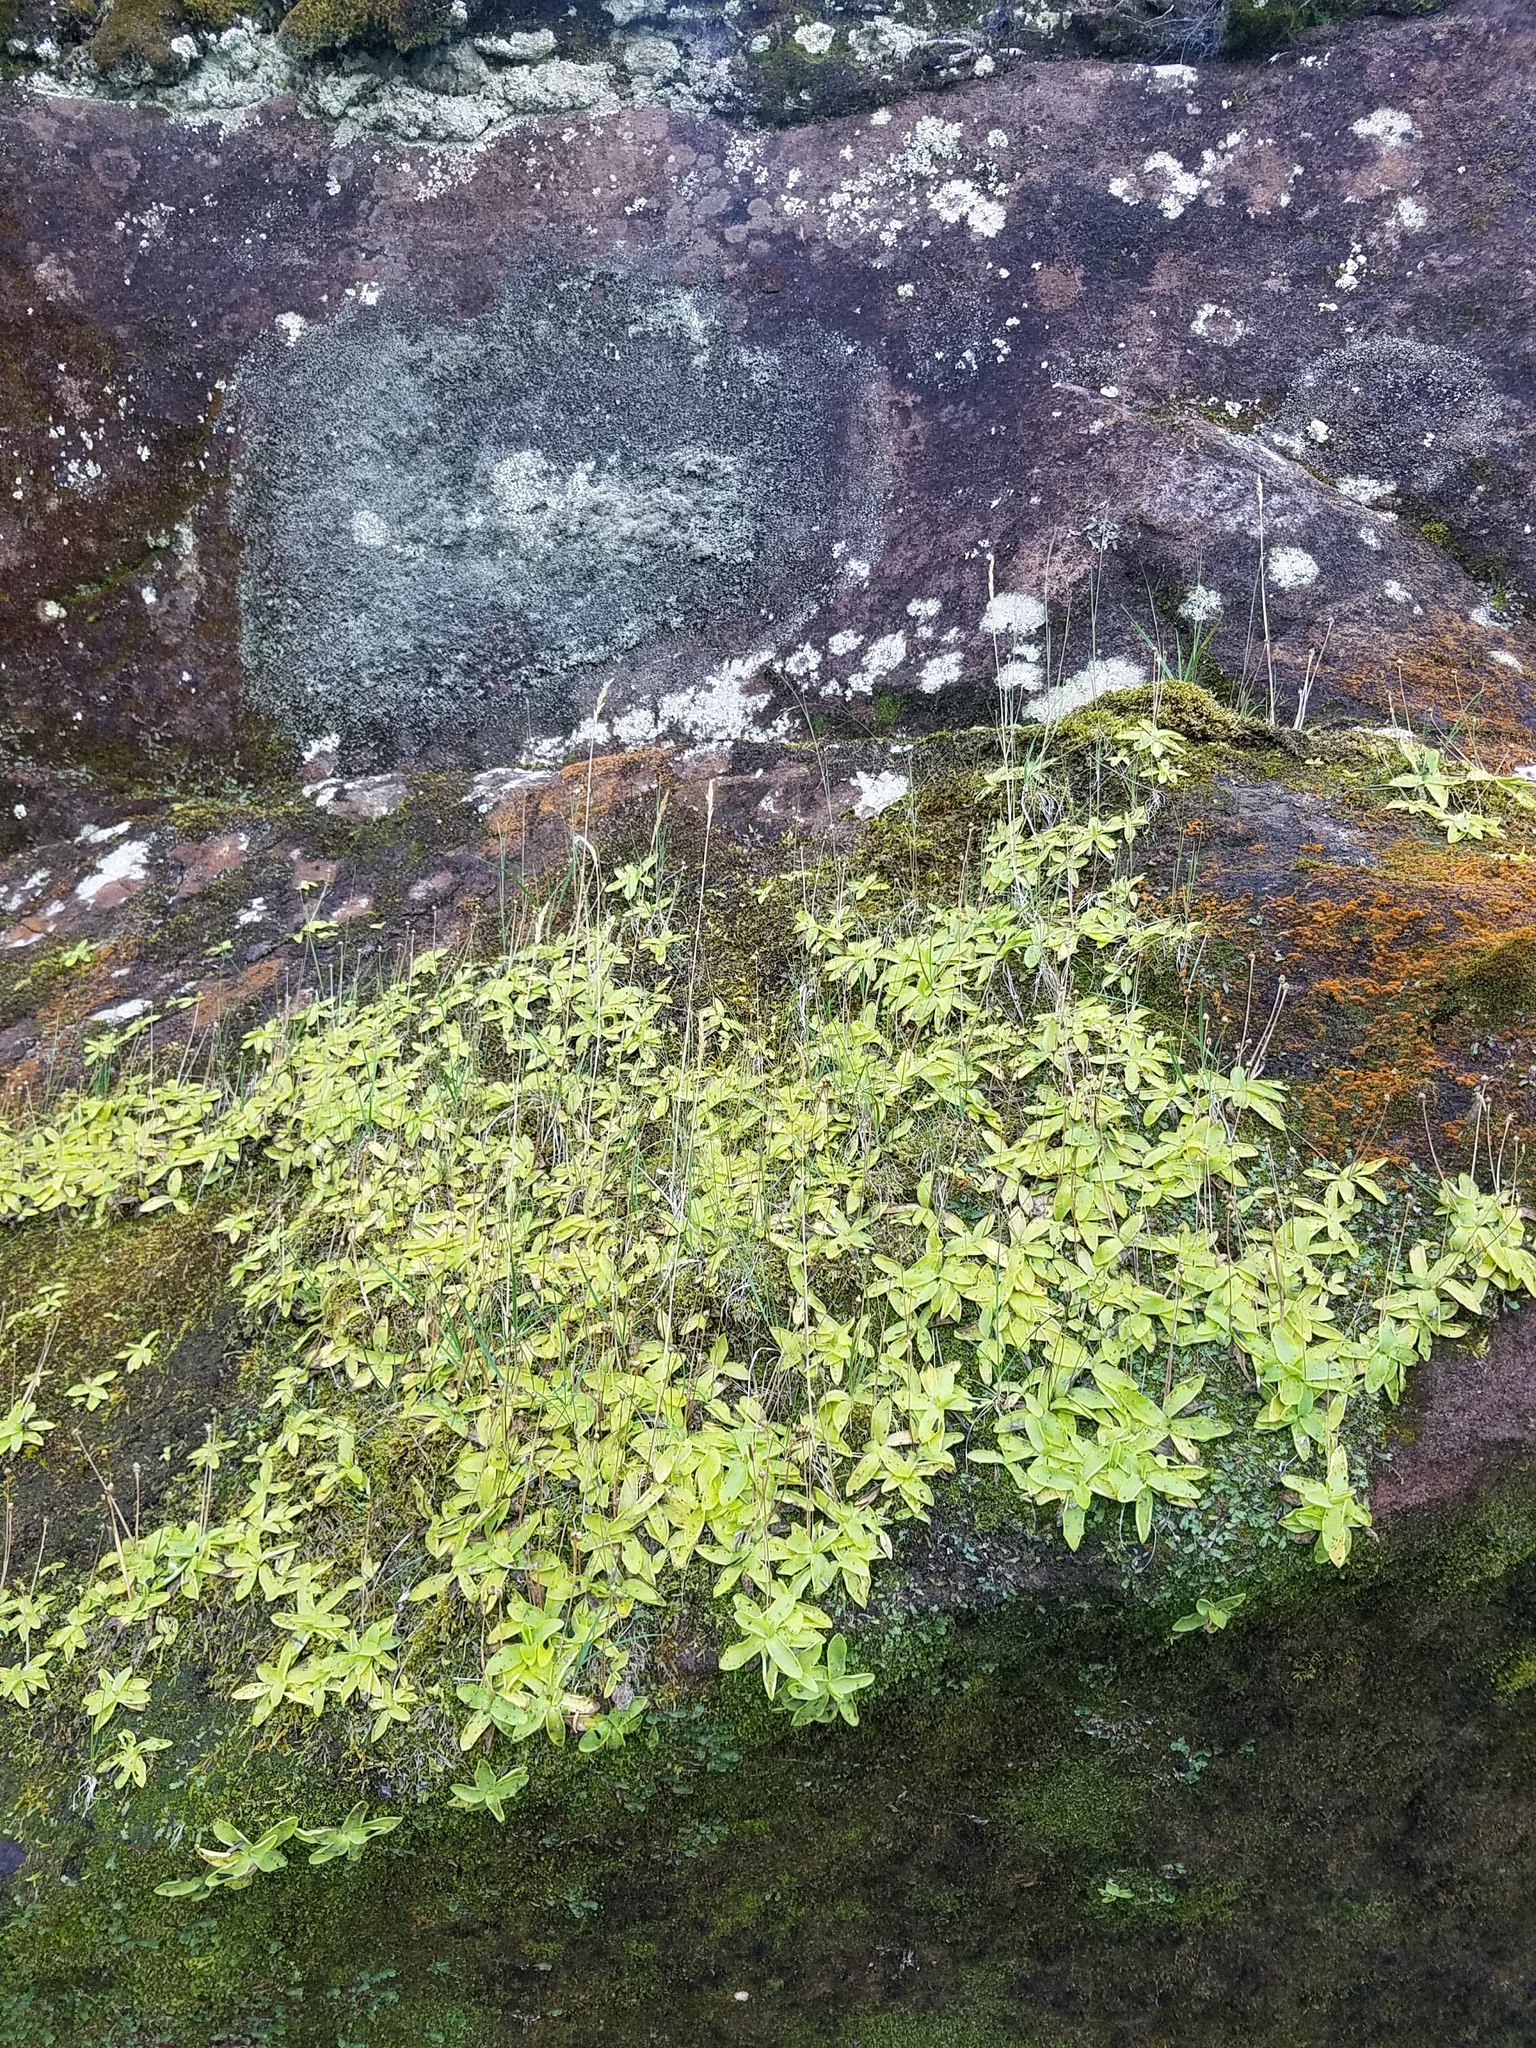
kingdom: Plantae
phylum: Tracheophyta
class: Magnoliopsida
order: Lamiales
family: Lentibulariaceae
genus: Pinguicula
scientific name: Pinguicula vulgaris
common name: Common butterwort
